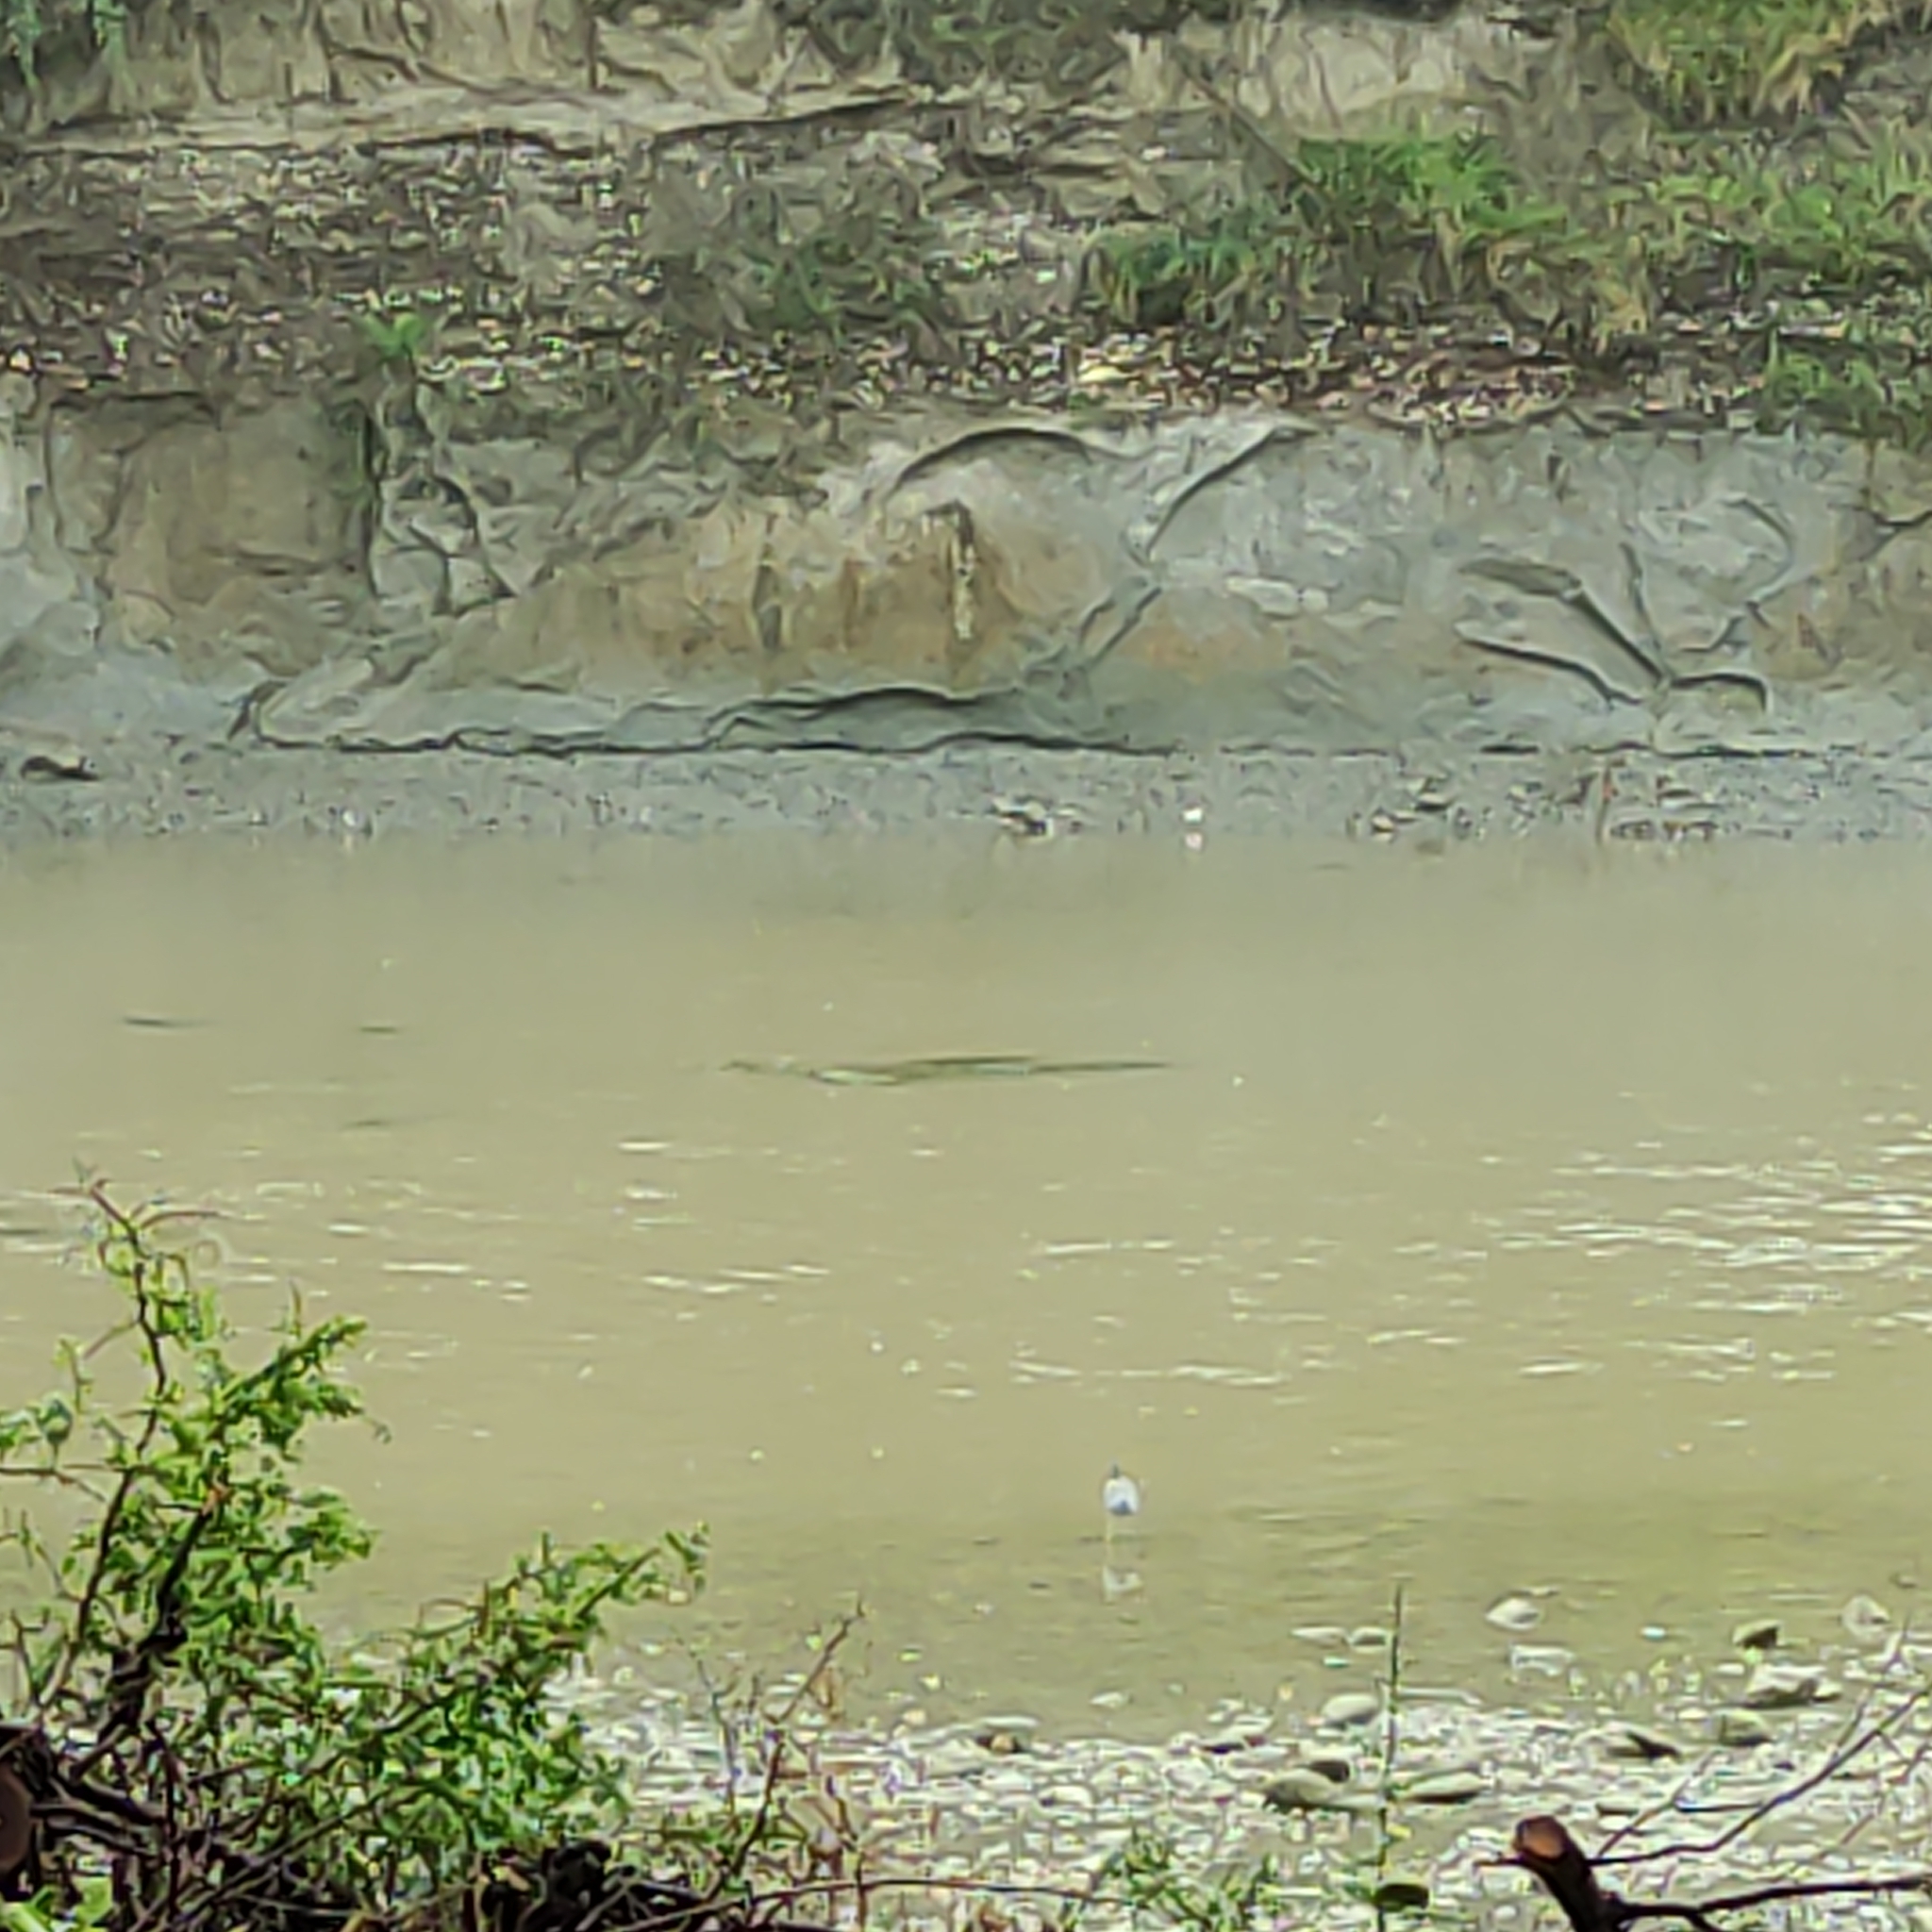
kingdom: Animalia
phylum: Chordata
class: Aves
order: Pelecaniformes
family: Ardeidae
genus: Egretta
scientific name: Egretta novaehollandiae
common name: White-faced heron
